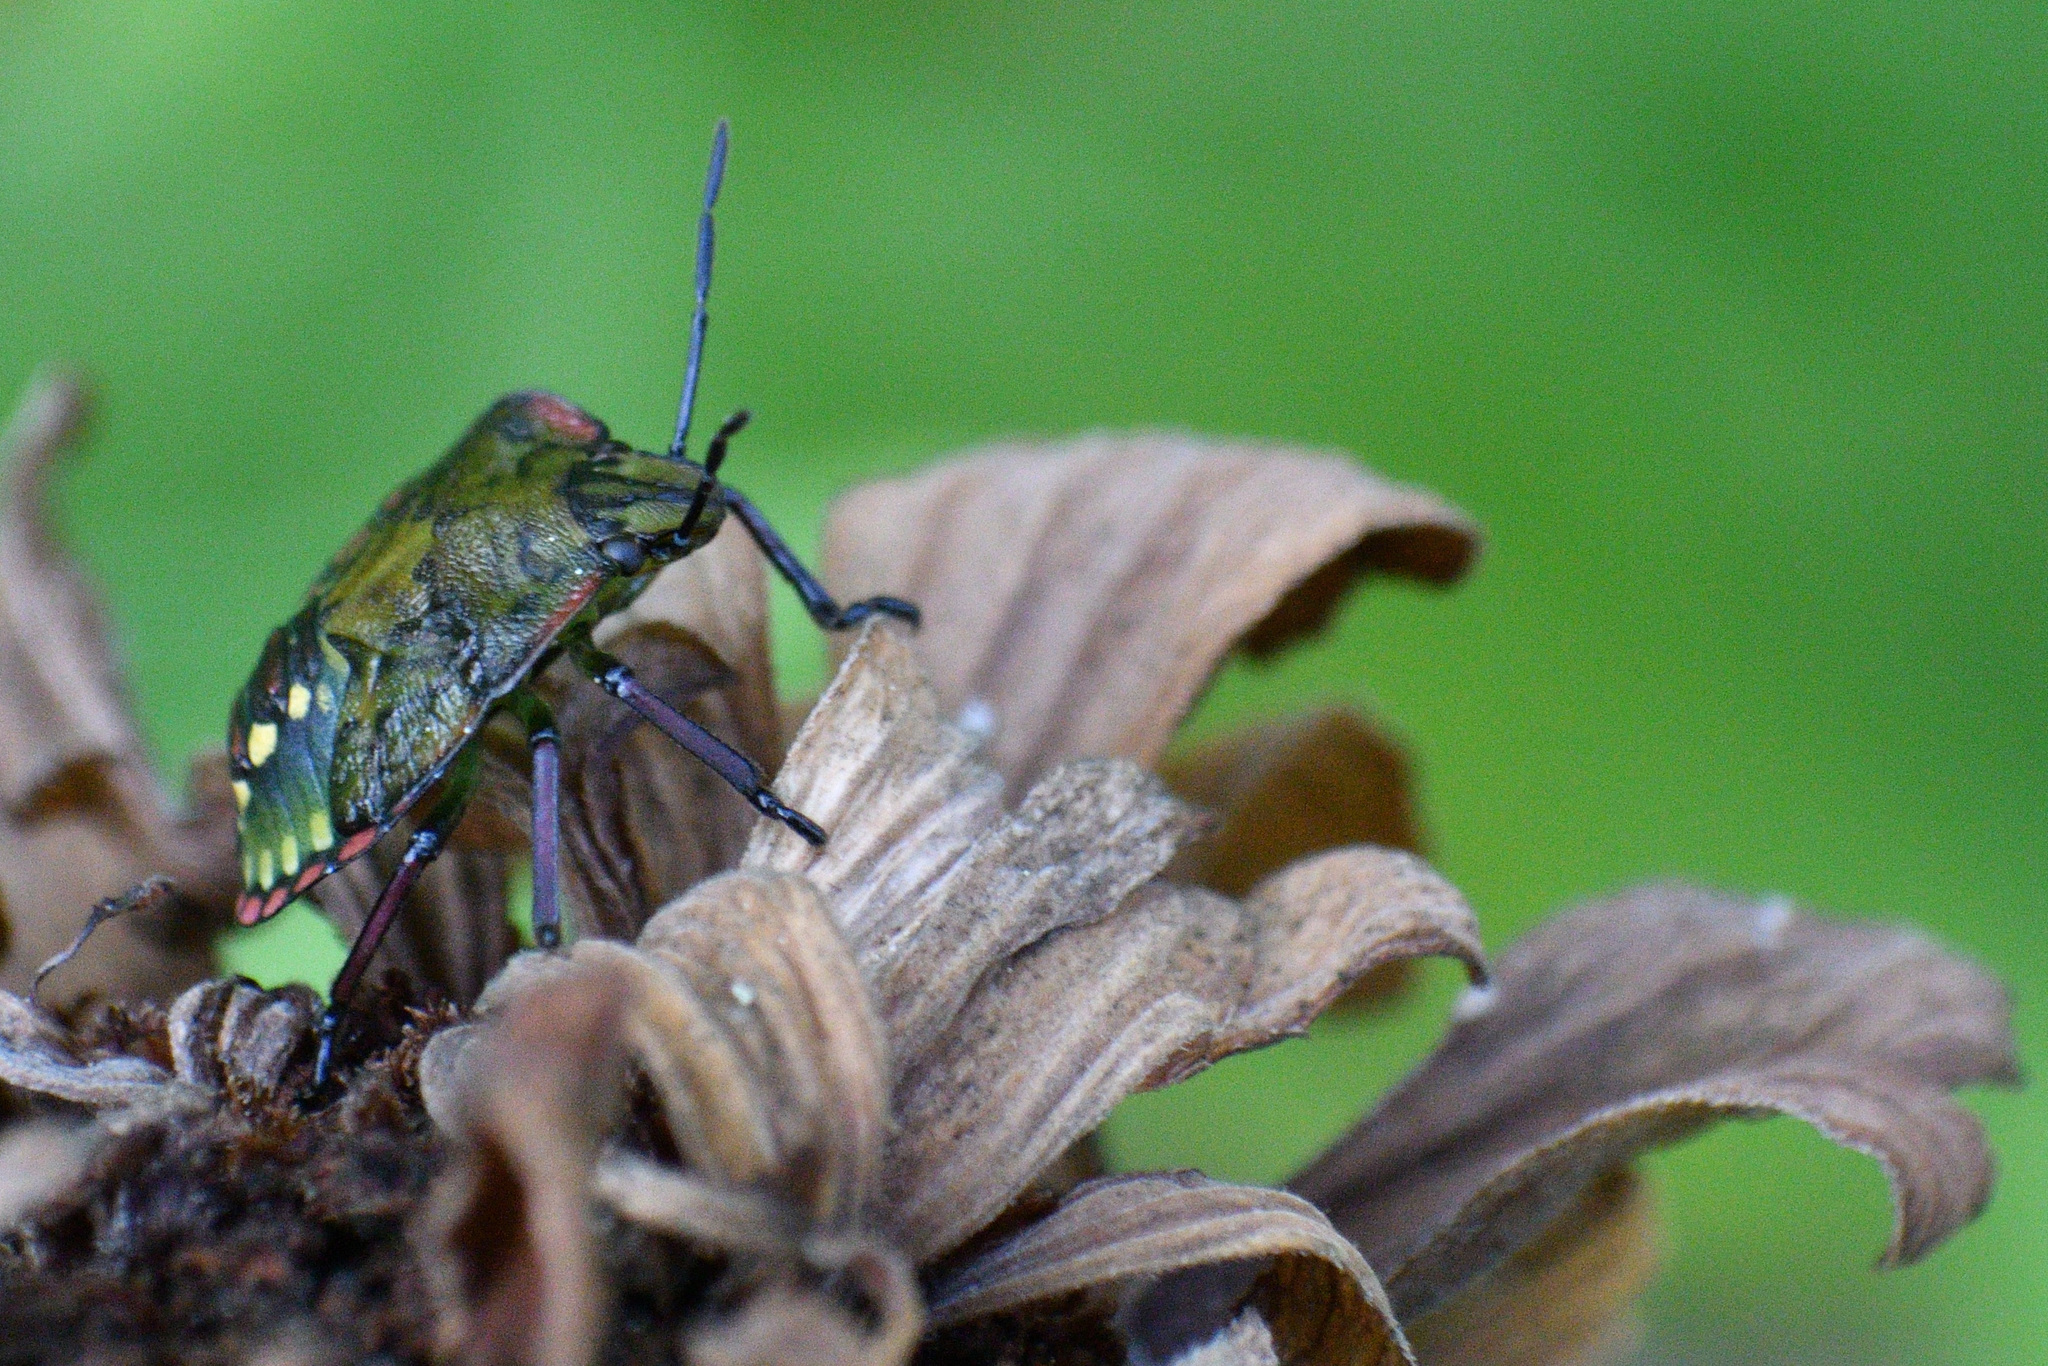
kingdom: Animalia
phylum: Arthropoda
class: Insecta
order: Hemiptera
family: Pentatomidae
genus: Nezara
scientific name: Nezara viridula
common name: Southern green stink bug
